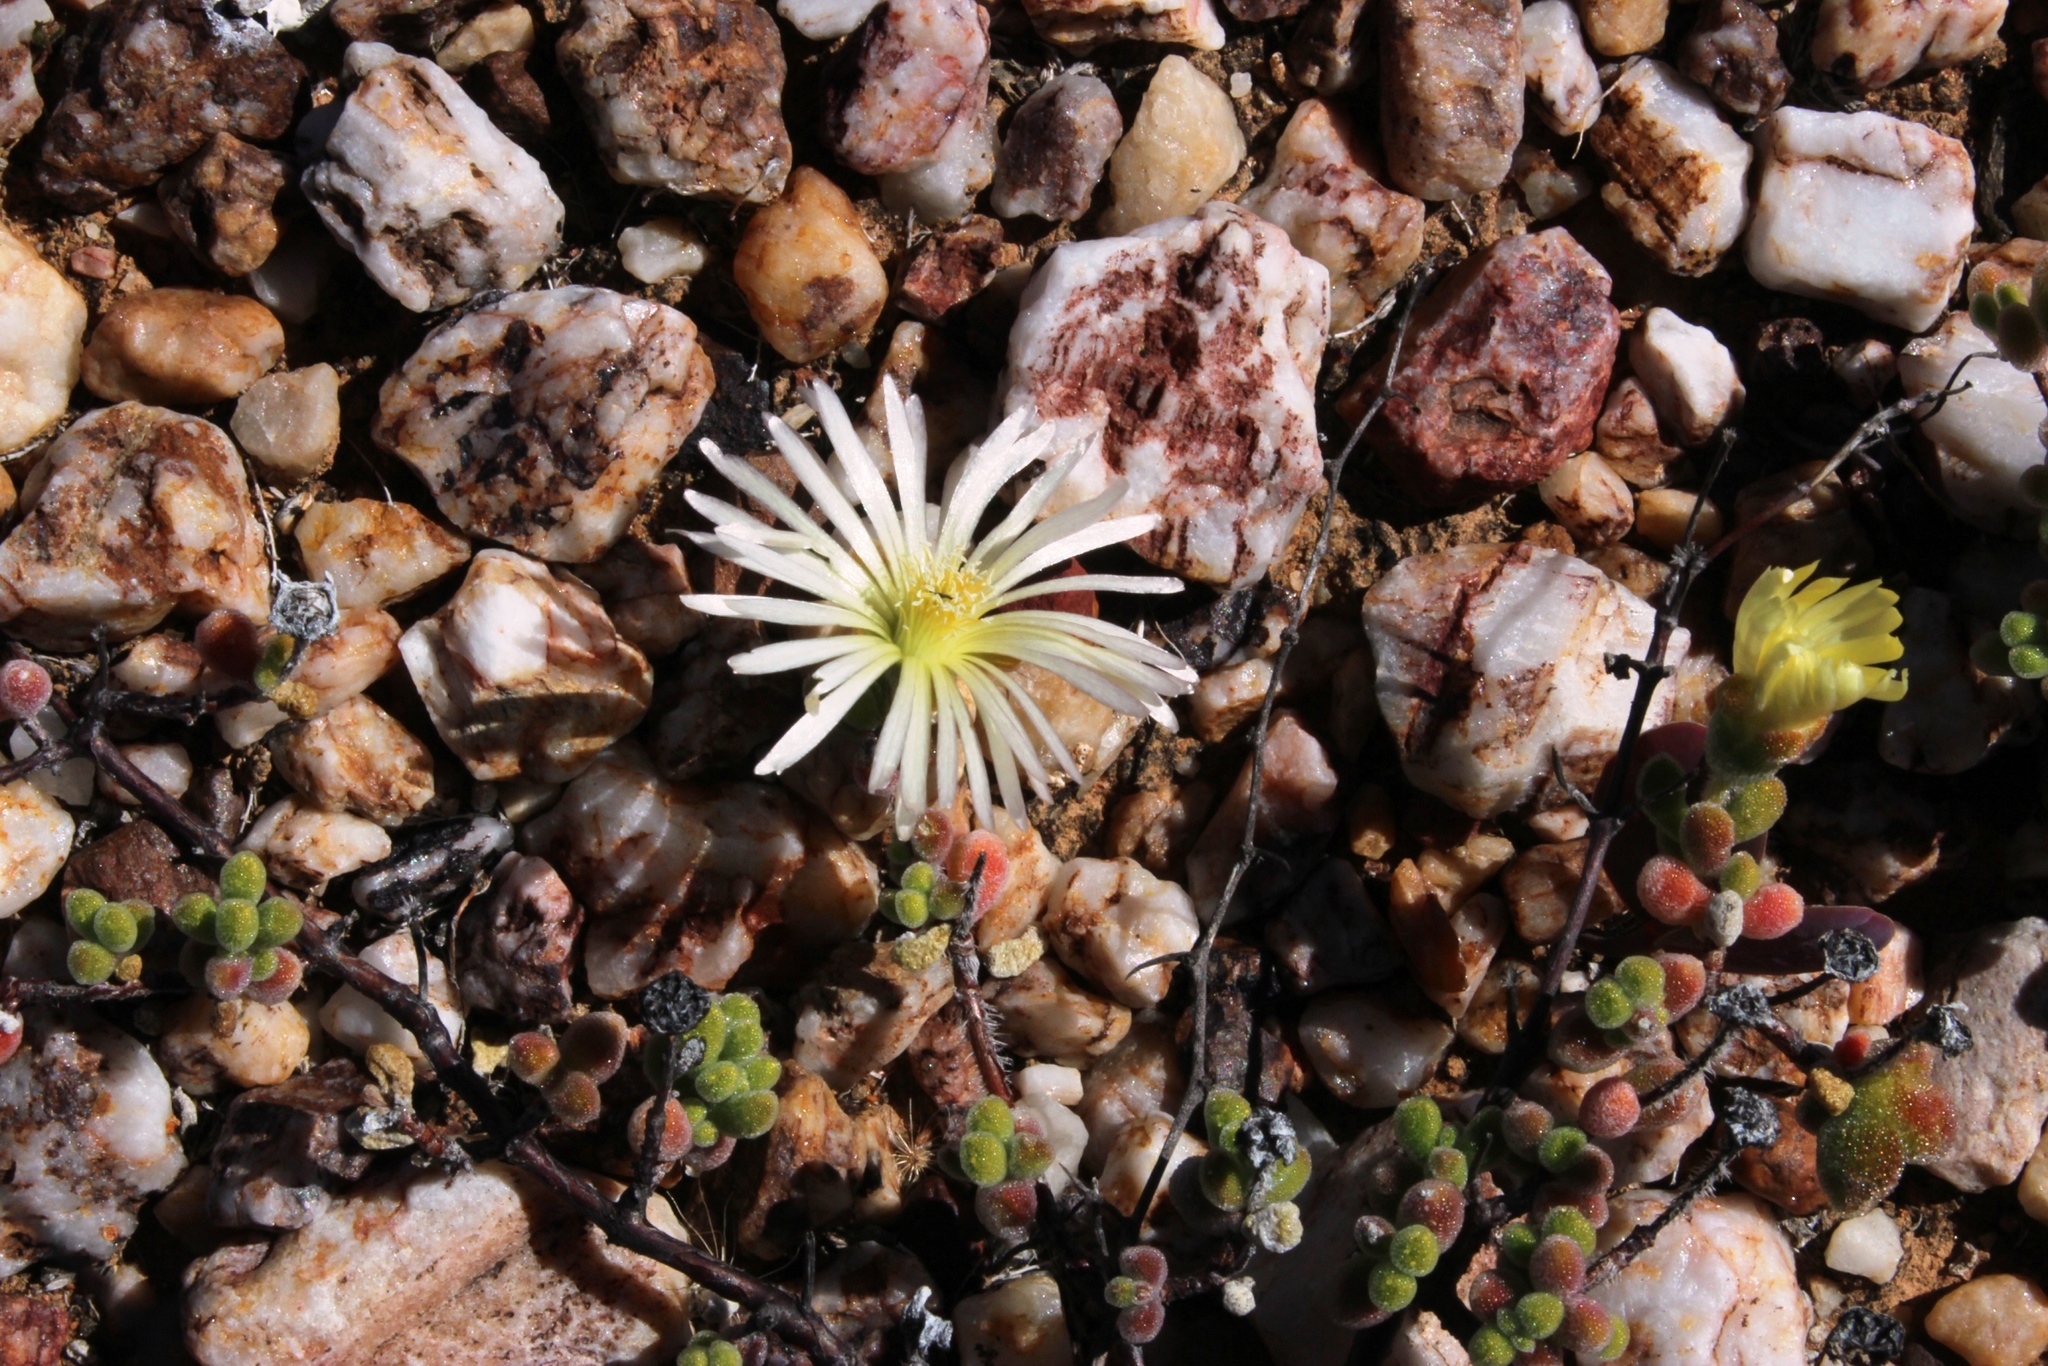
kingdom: Plantae
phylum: Tracheophyta
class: Magnoliopsida
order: Caryophyllales
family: Aizoaceae
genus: Drosanthemum
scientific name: Drosanthemum schoenlandianum
